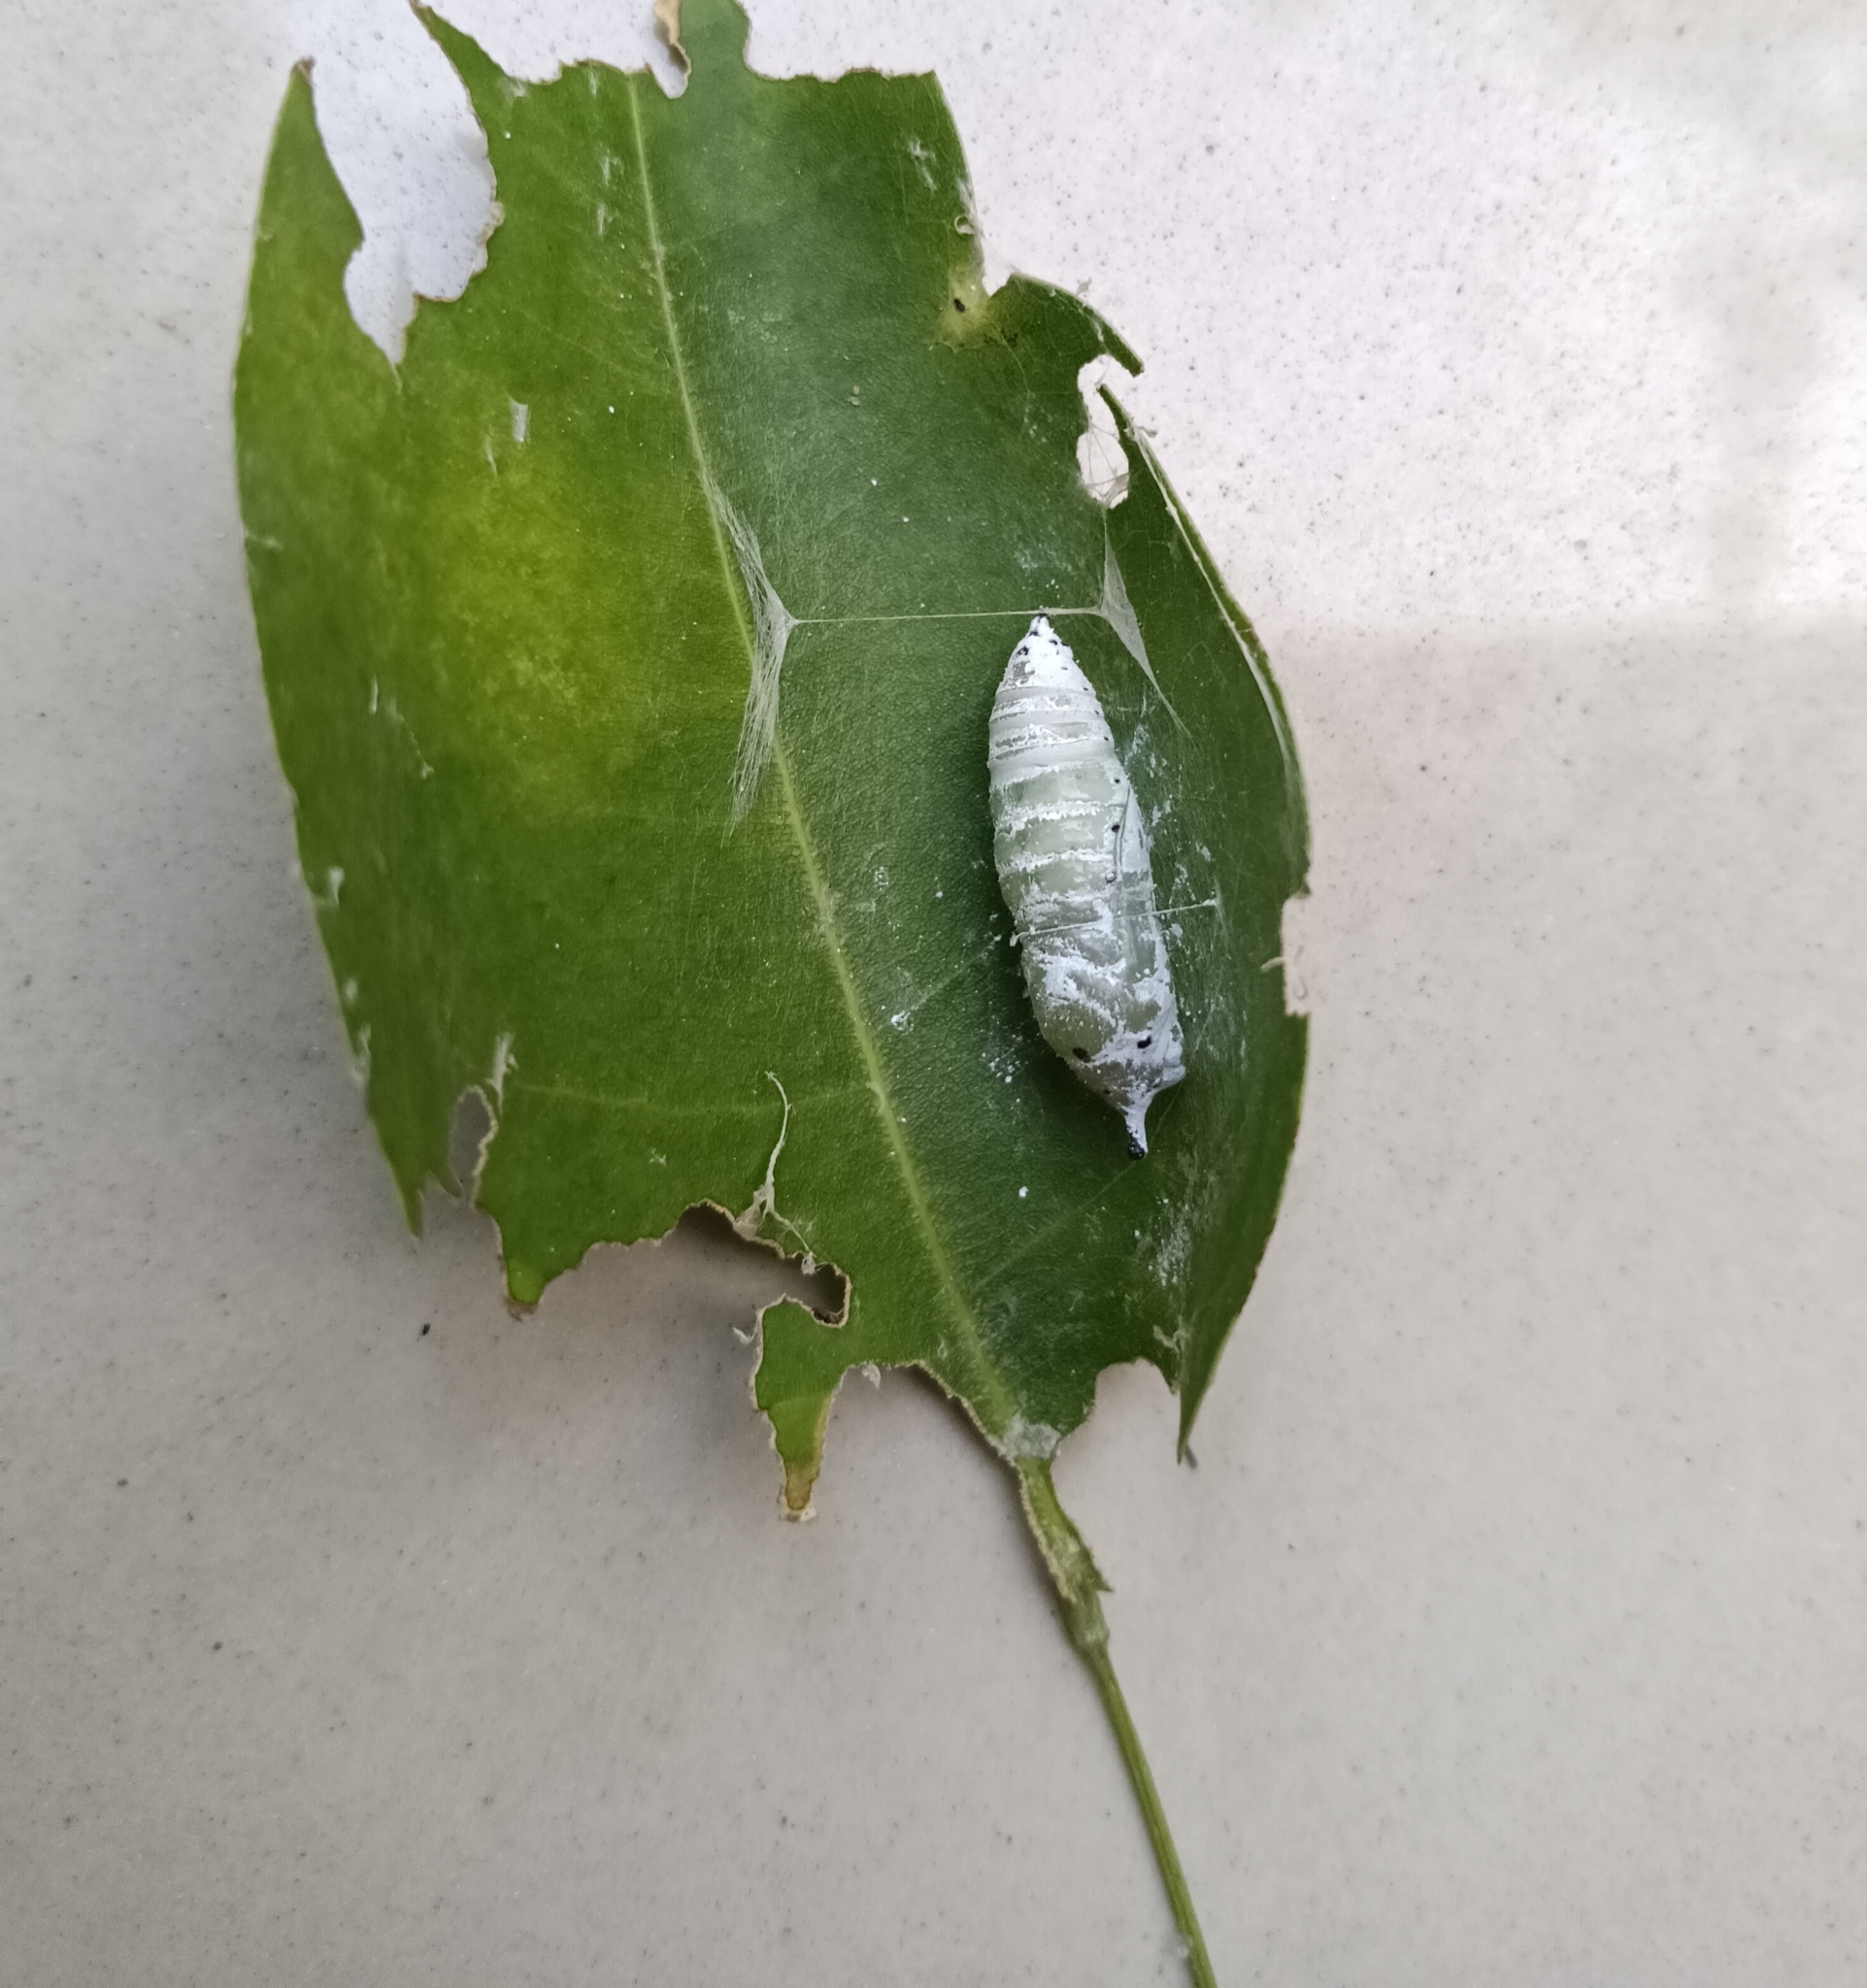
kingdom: Animalia
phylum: Arthropoda
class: Insecta
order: Lepidoptera
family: Hesperiidae
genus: Hasora
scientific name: Hasora badra
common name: Common awl
